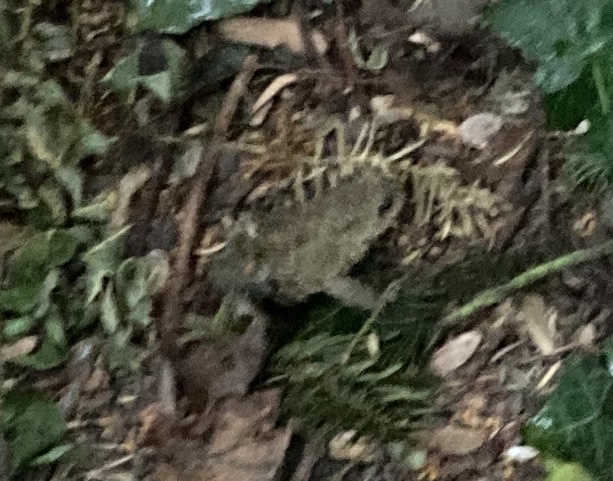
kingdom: Animalia
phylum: Chordata
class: Amphibia
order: Anura
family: Bufonidae
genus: Bufo
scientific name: Bufo bufo
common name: Common toad
